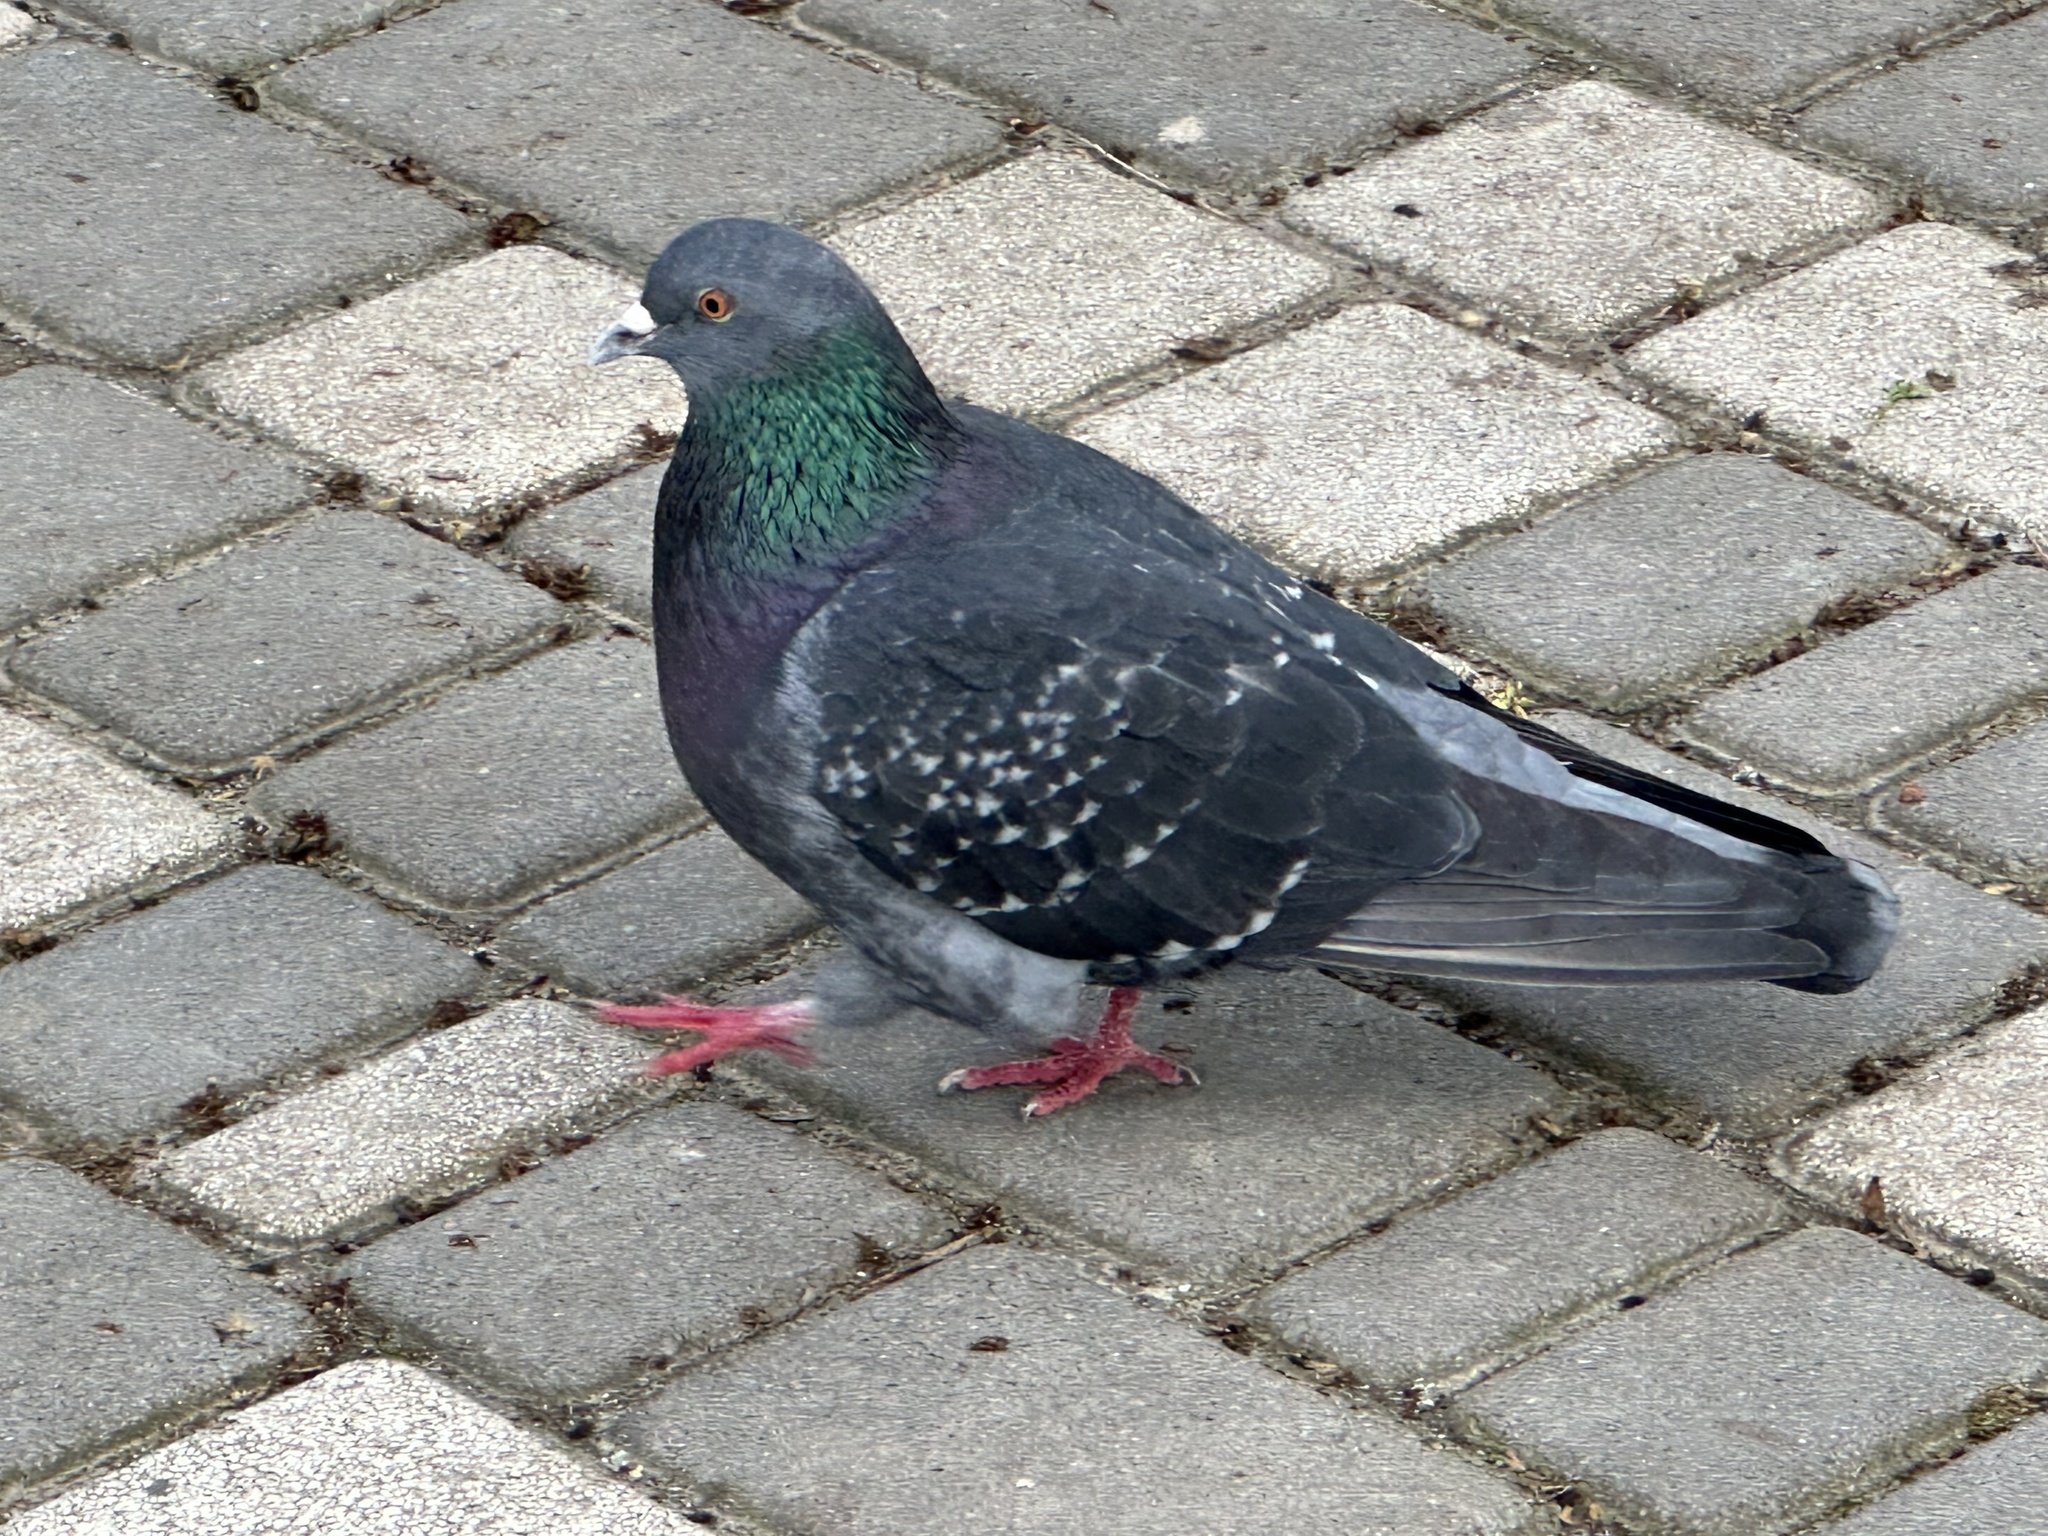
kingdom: Animalia
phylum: Chordata
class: Aves
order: Columbiformes
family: Columbidae
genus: Columba
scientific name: Columba livia
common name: Rock pigeon
